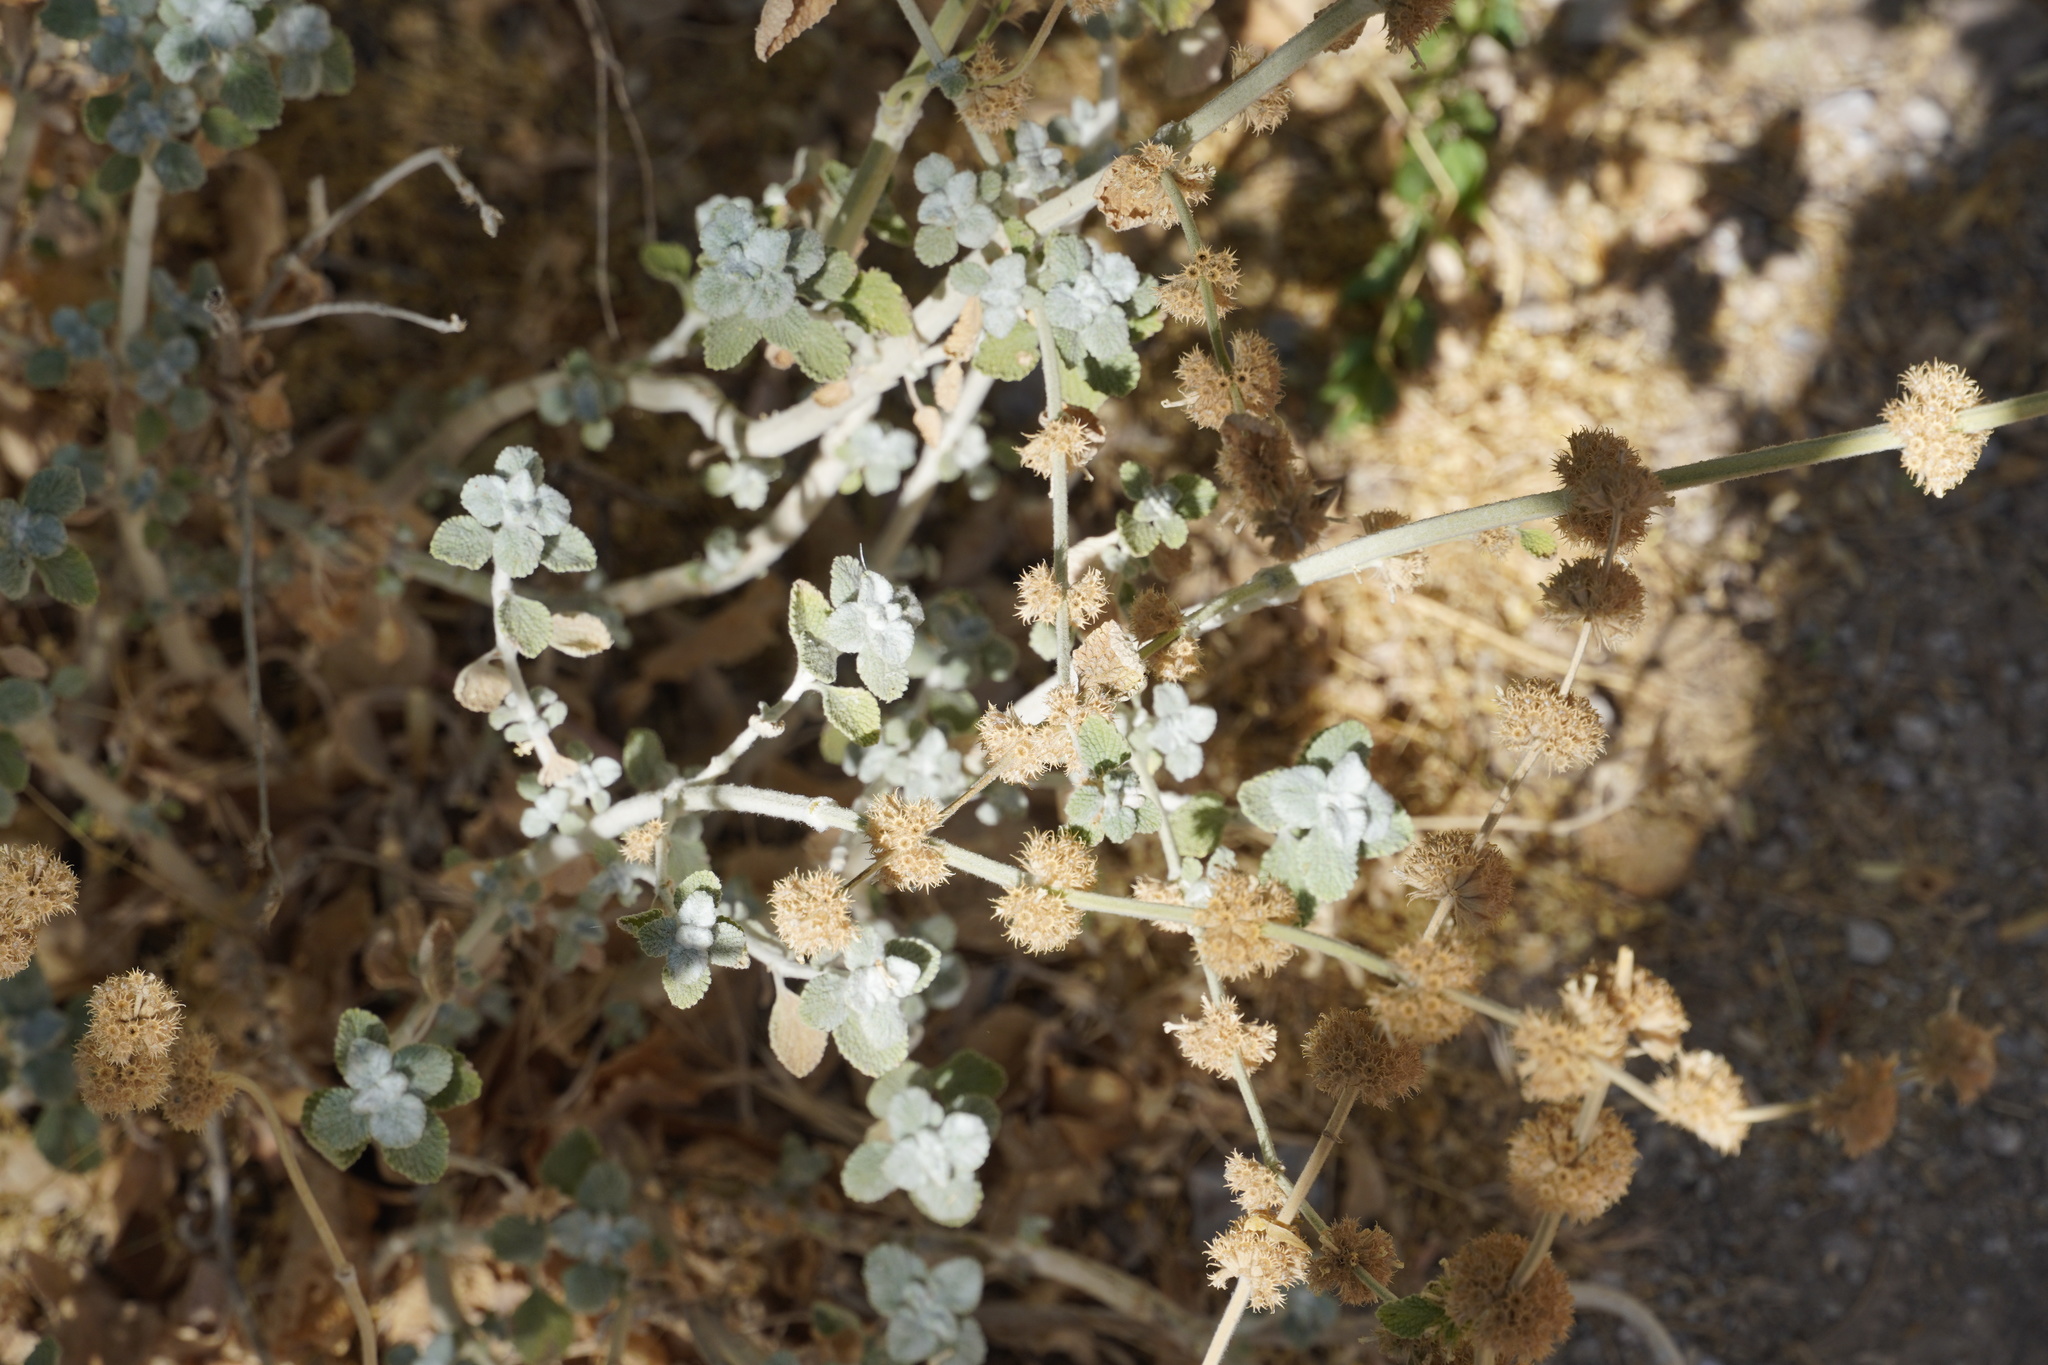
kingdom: Plantae
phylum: Tracheophyta
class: Magnoliopsida
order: Lamiales
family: Lamiaceae
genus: Marrubium
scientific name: Marrubium vulgare
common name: Horehound
